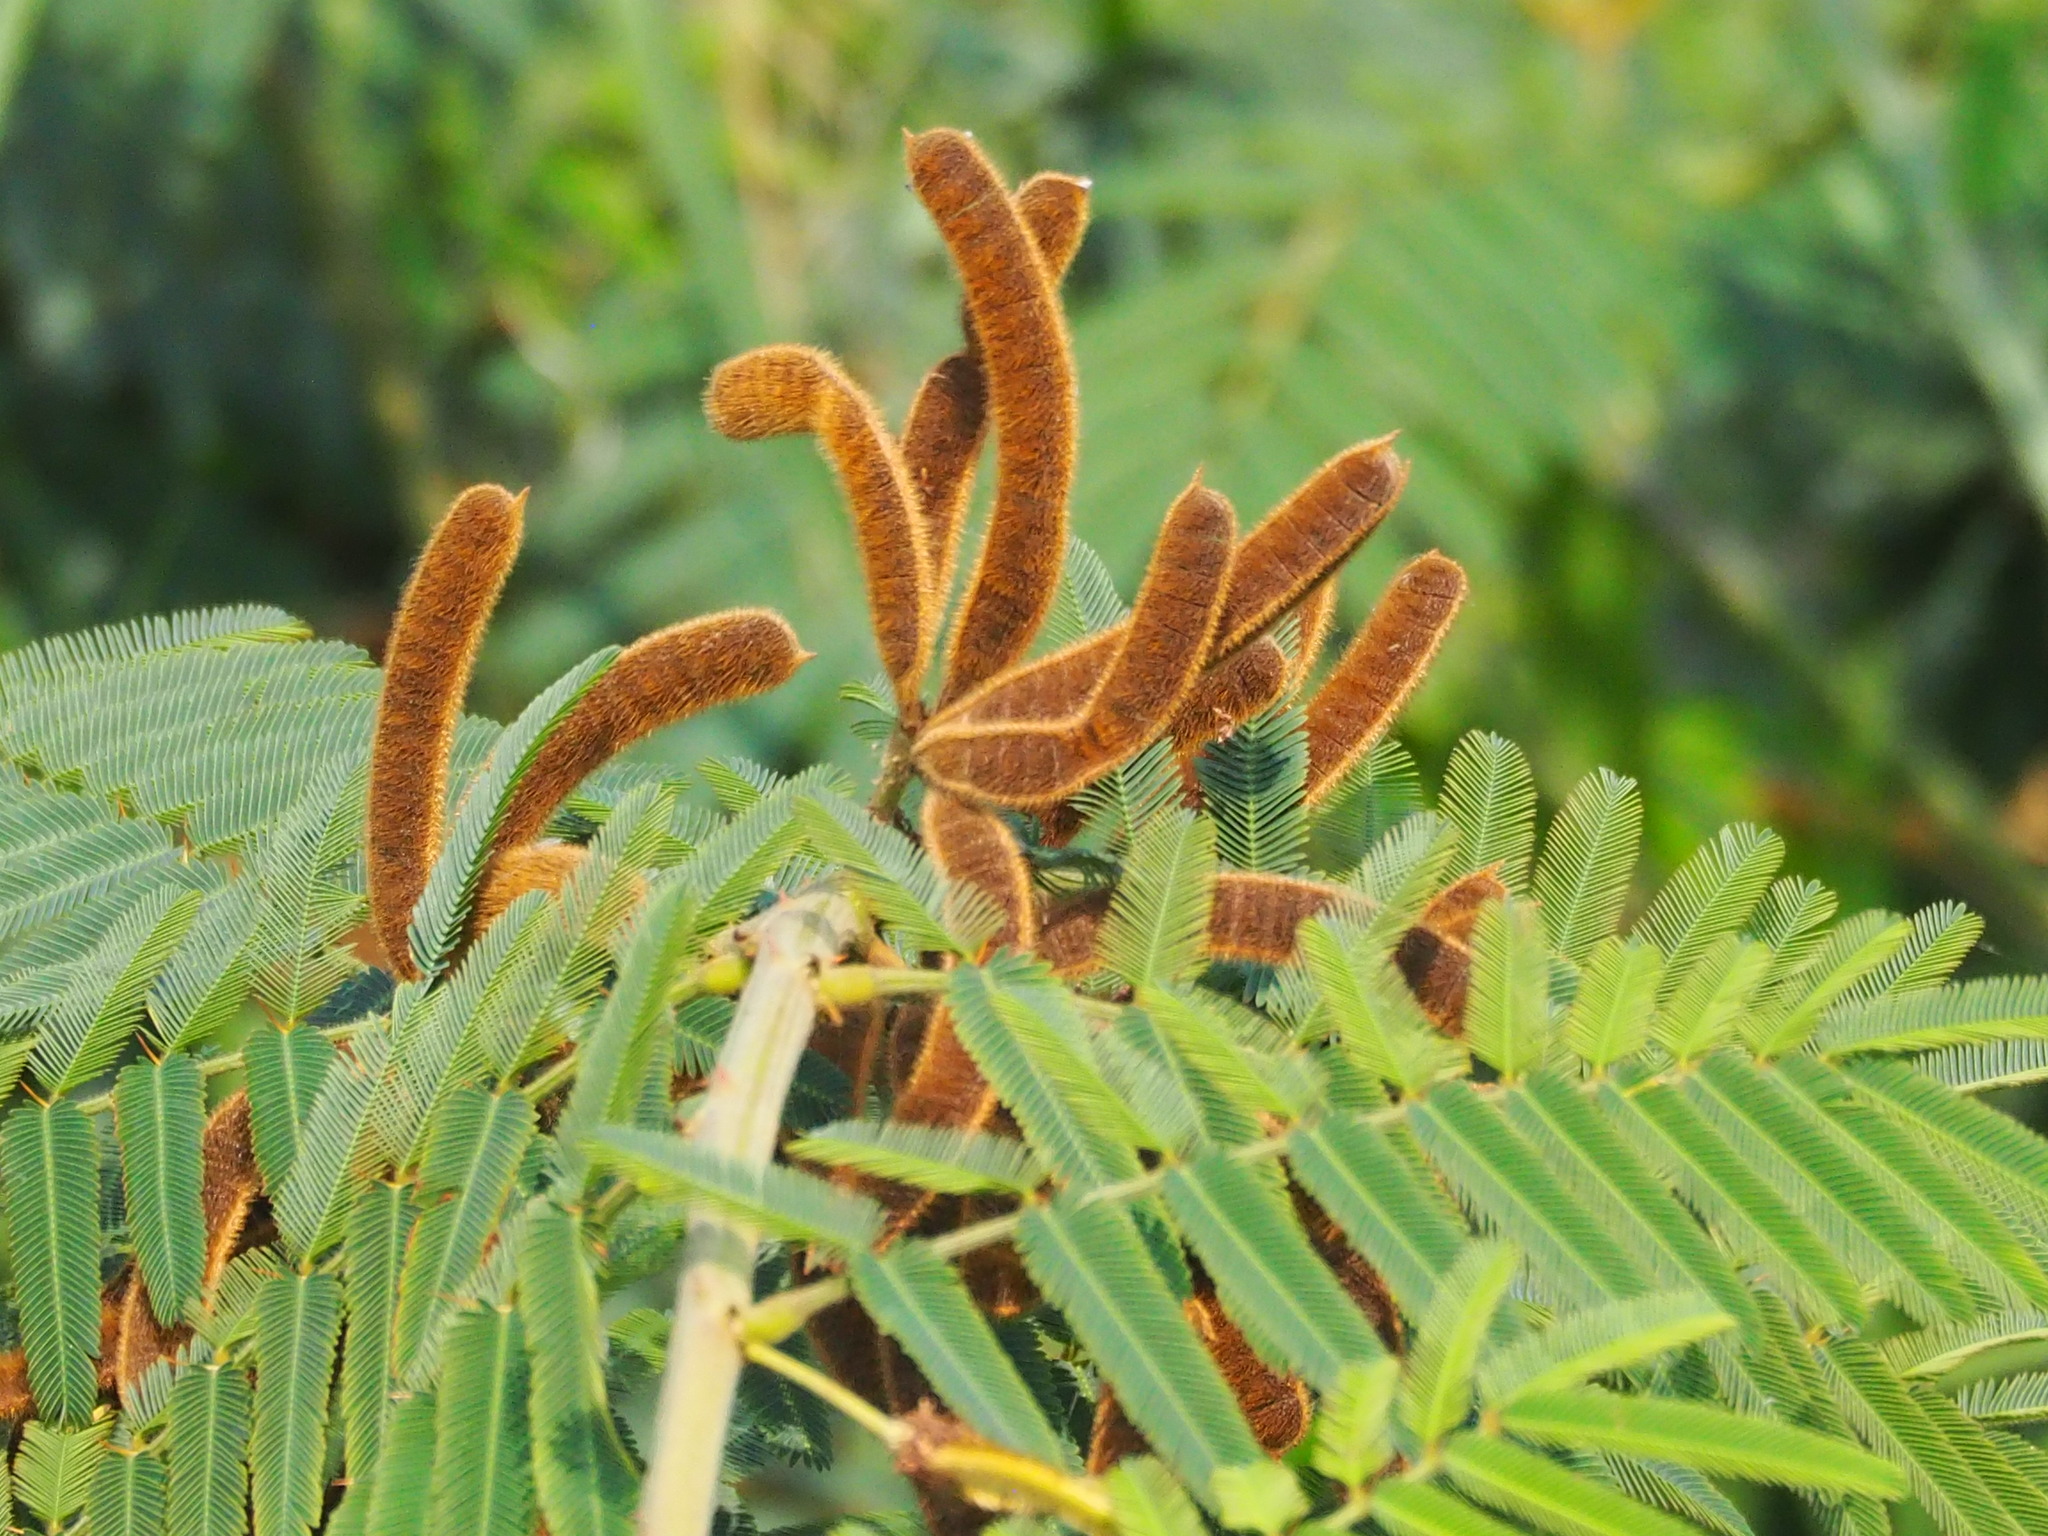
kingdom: Plantae
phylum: Tracheophyta
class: Magnoliopsida
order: Fabales
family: Fabaceae
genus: Mimosa
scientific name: Mimosa pigra
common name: Black mimosa
